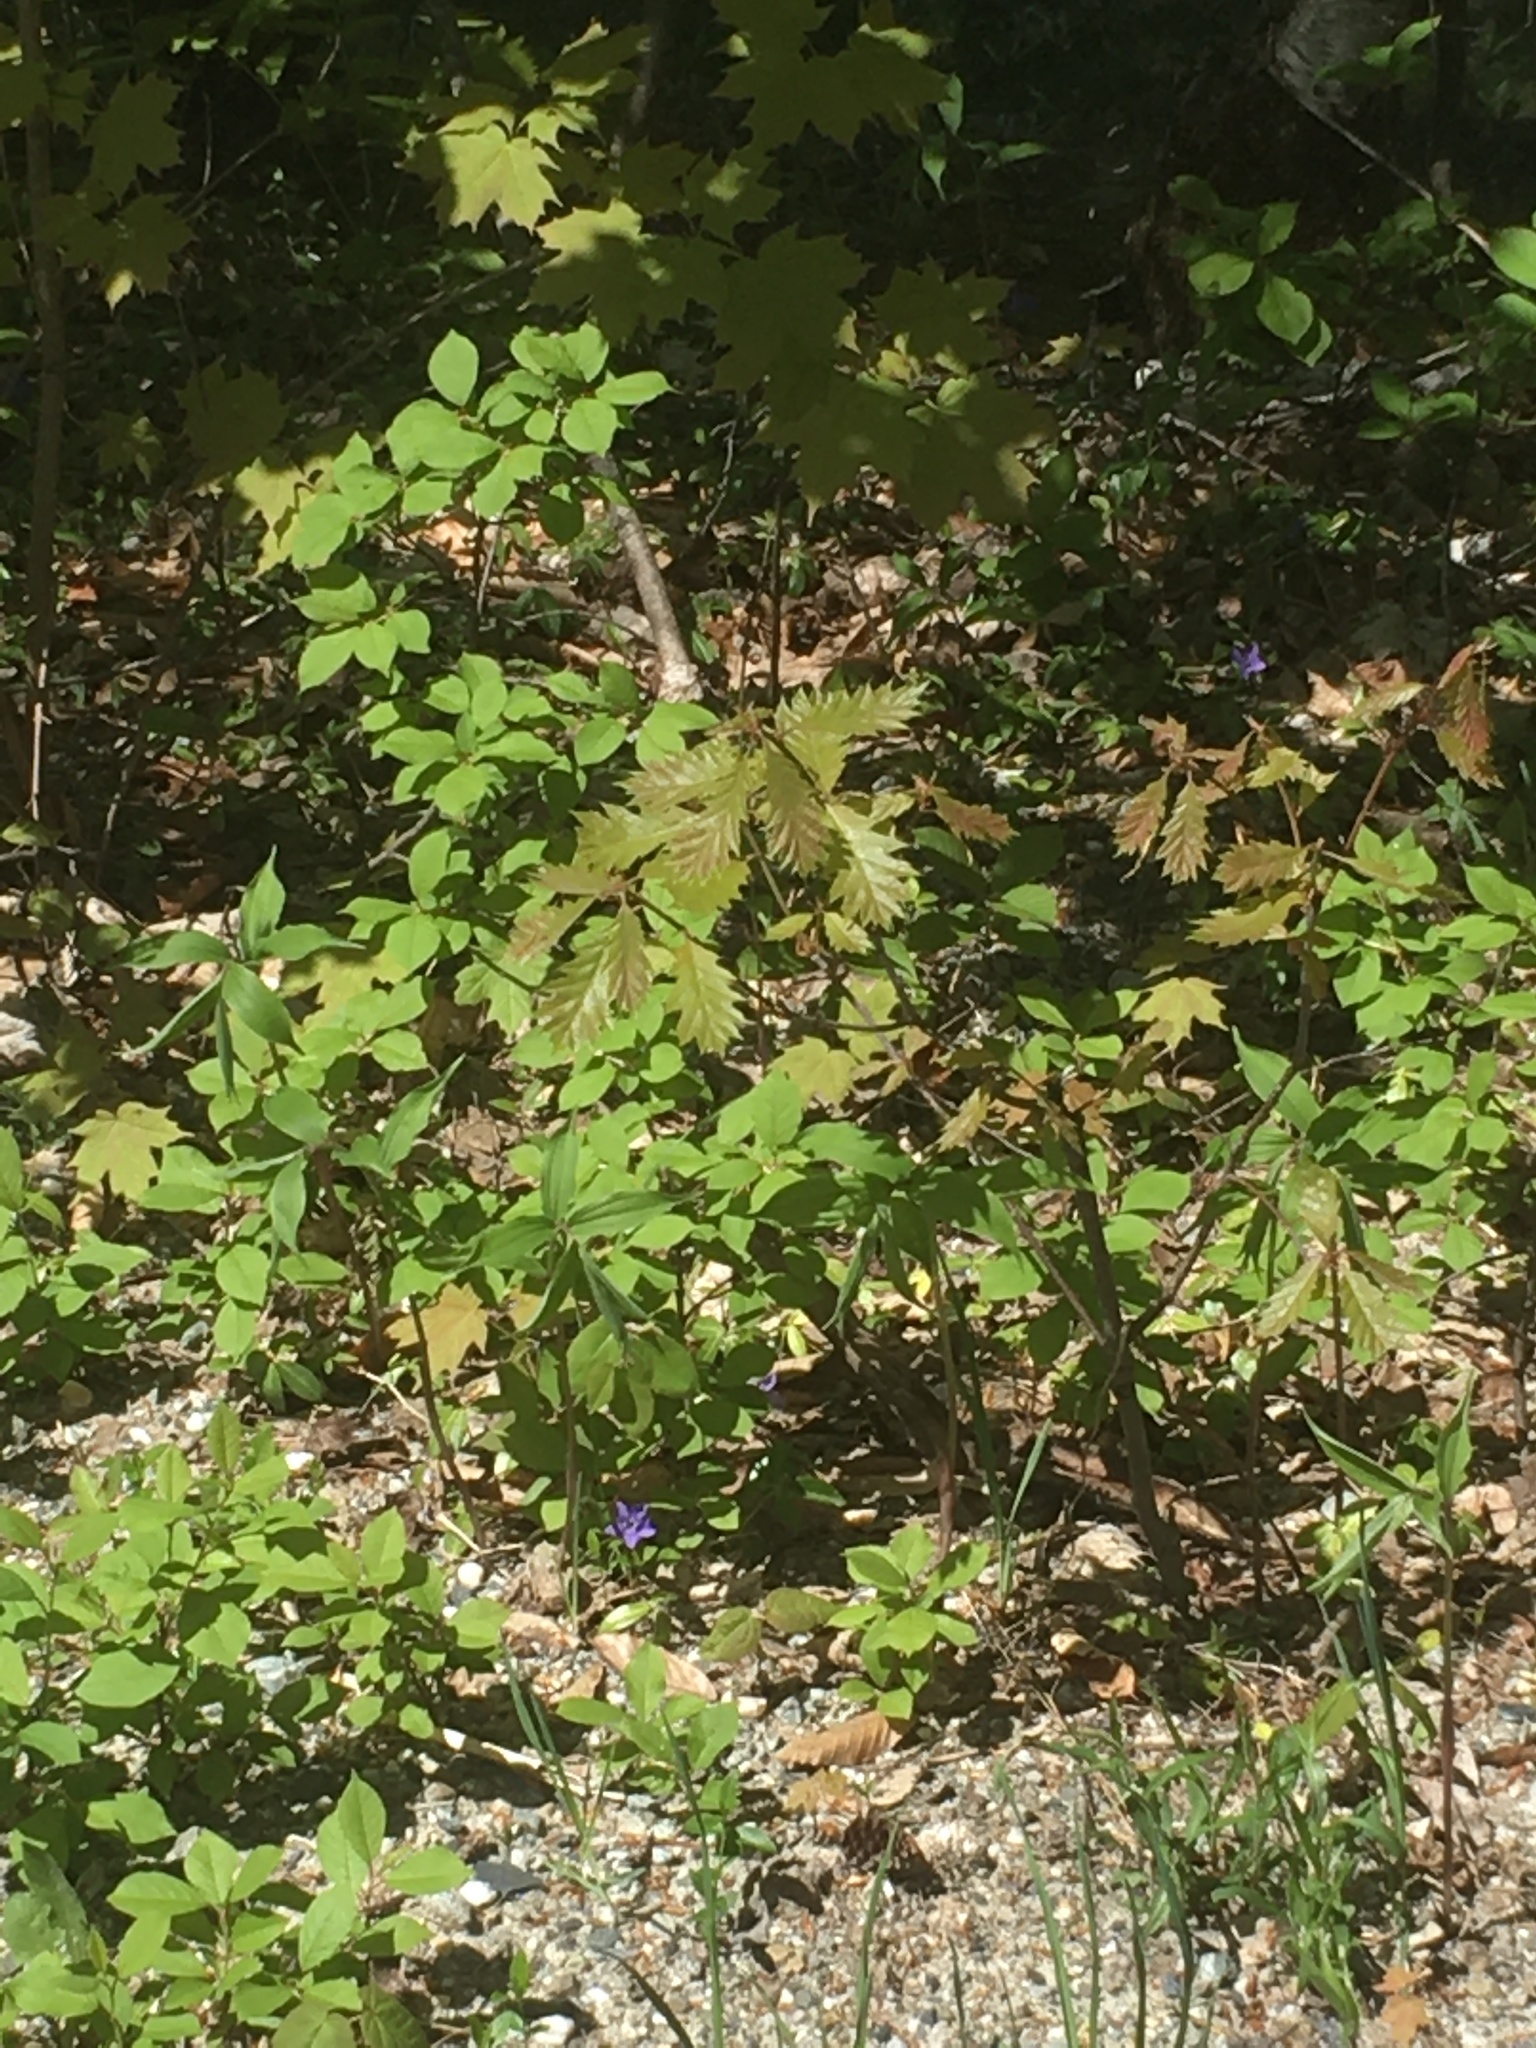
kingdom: Plantae
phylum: Tracheophyta
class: Magnoliopsida
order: Fagales
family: Fagaceae
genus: Quercus
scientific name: Quercus rubra
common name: Red oak
